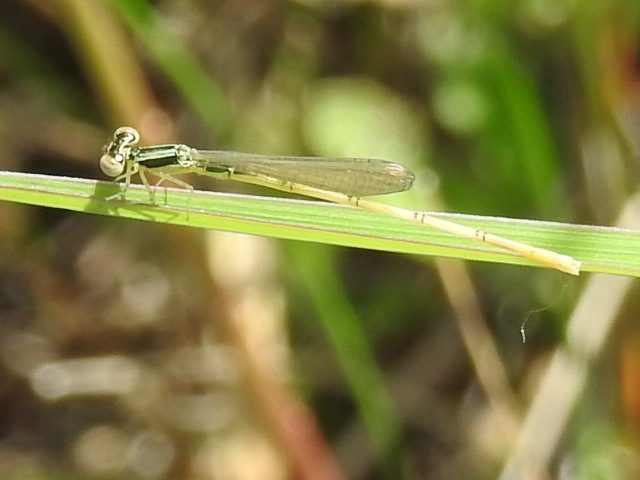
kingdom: Animalia
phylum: Arthropoda
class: Insecta
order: Odonata
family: Coenagrionidae
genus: Ischnura
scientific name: Ischnura hastata
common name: Citrine forktail
